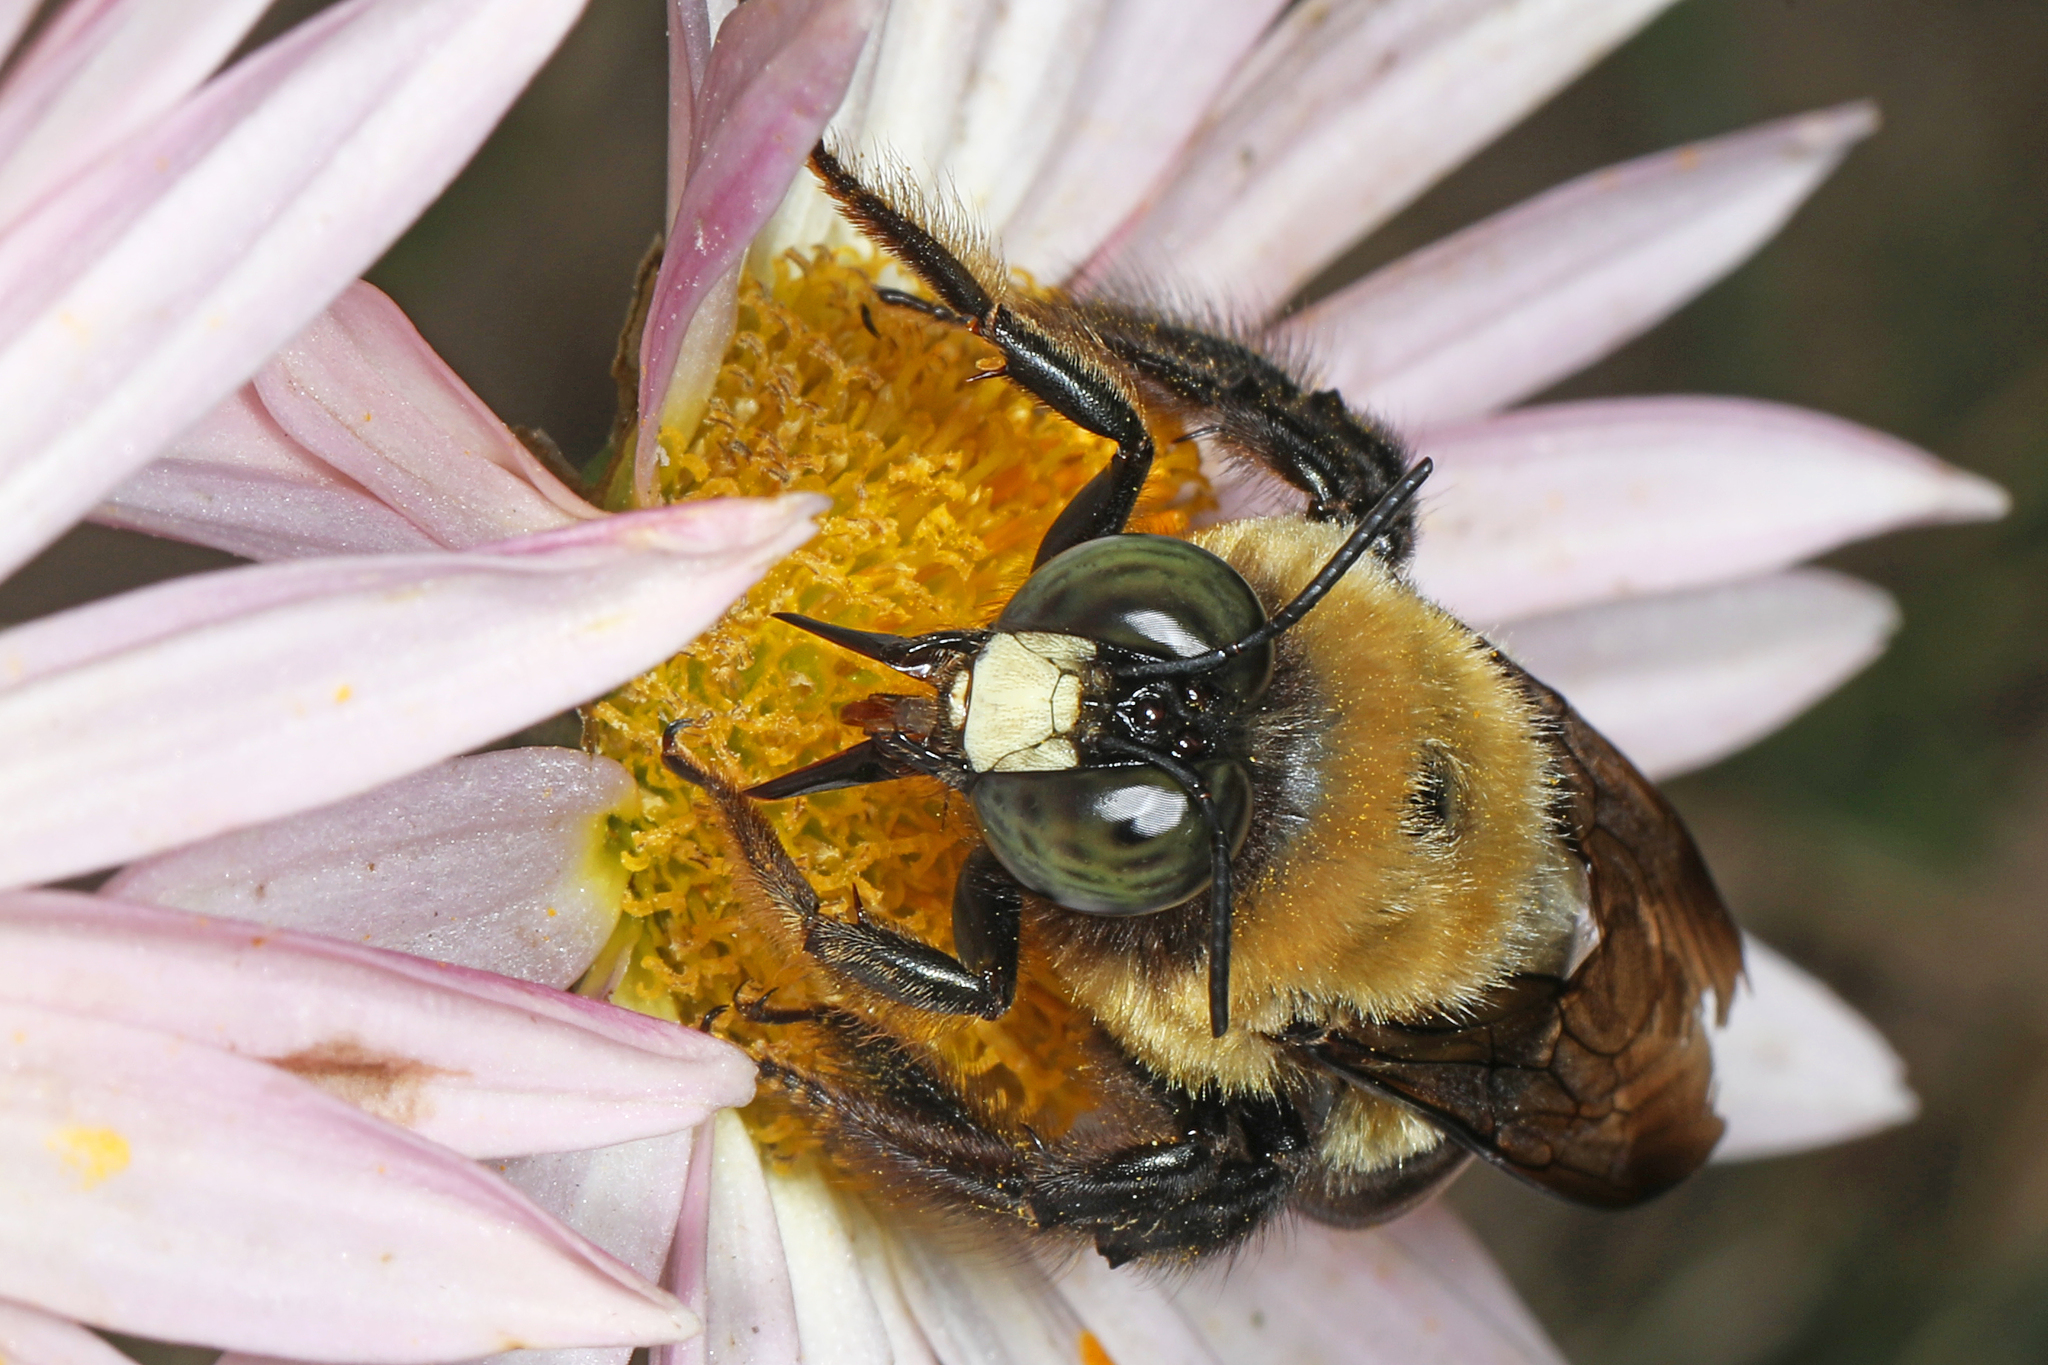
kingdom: Animalia
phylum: Arthropoda
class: Insecta
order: Hymenoptera
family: Apidae
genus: Xylocopa
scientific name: Xylocopa virginica
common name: Carpenter bee
